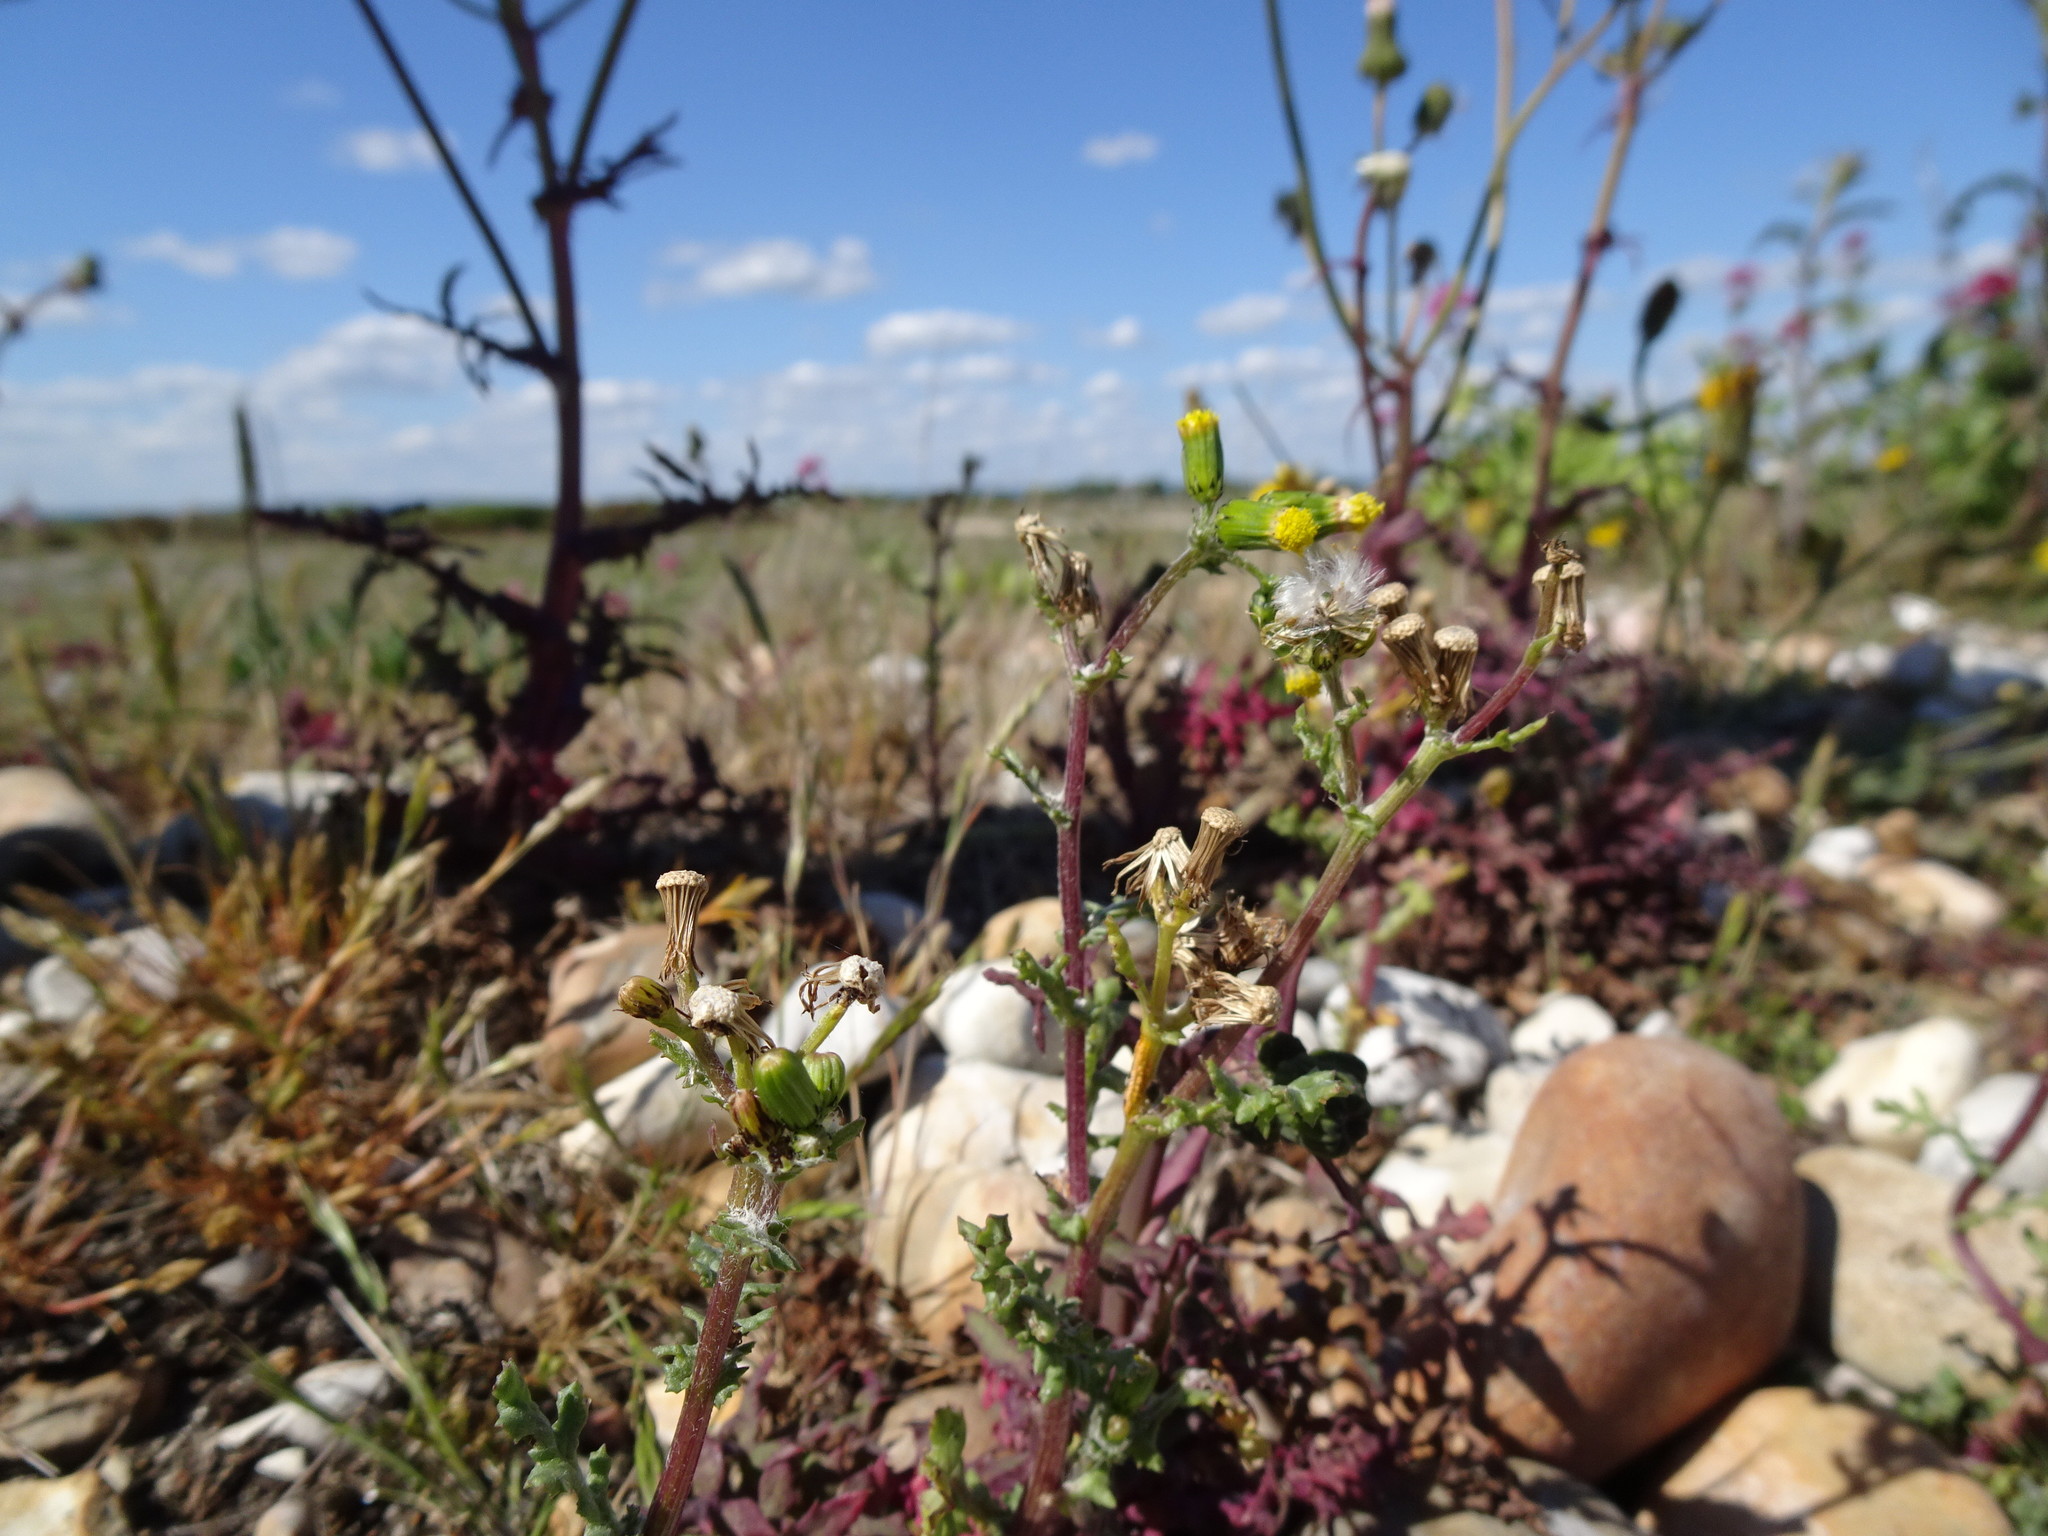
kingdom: Plantae
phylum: Tracheophyta
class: Magnoliopsida
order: Asterales
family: Asteraceae
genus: Senecio
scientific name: Senecio vulgaris
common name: Old-man-in-the-spring
